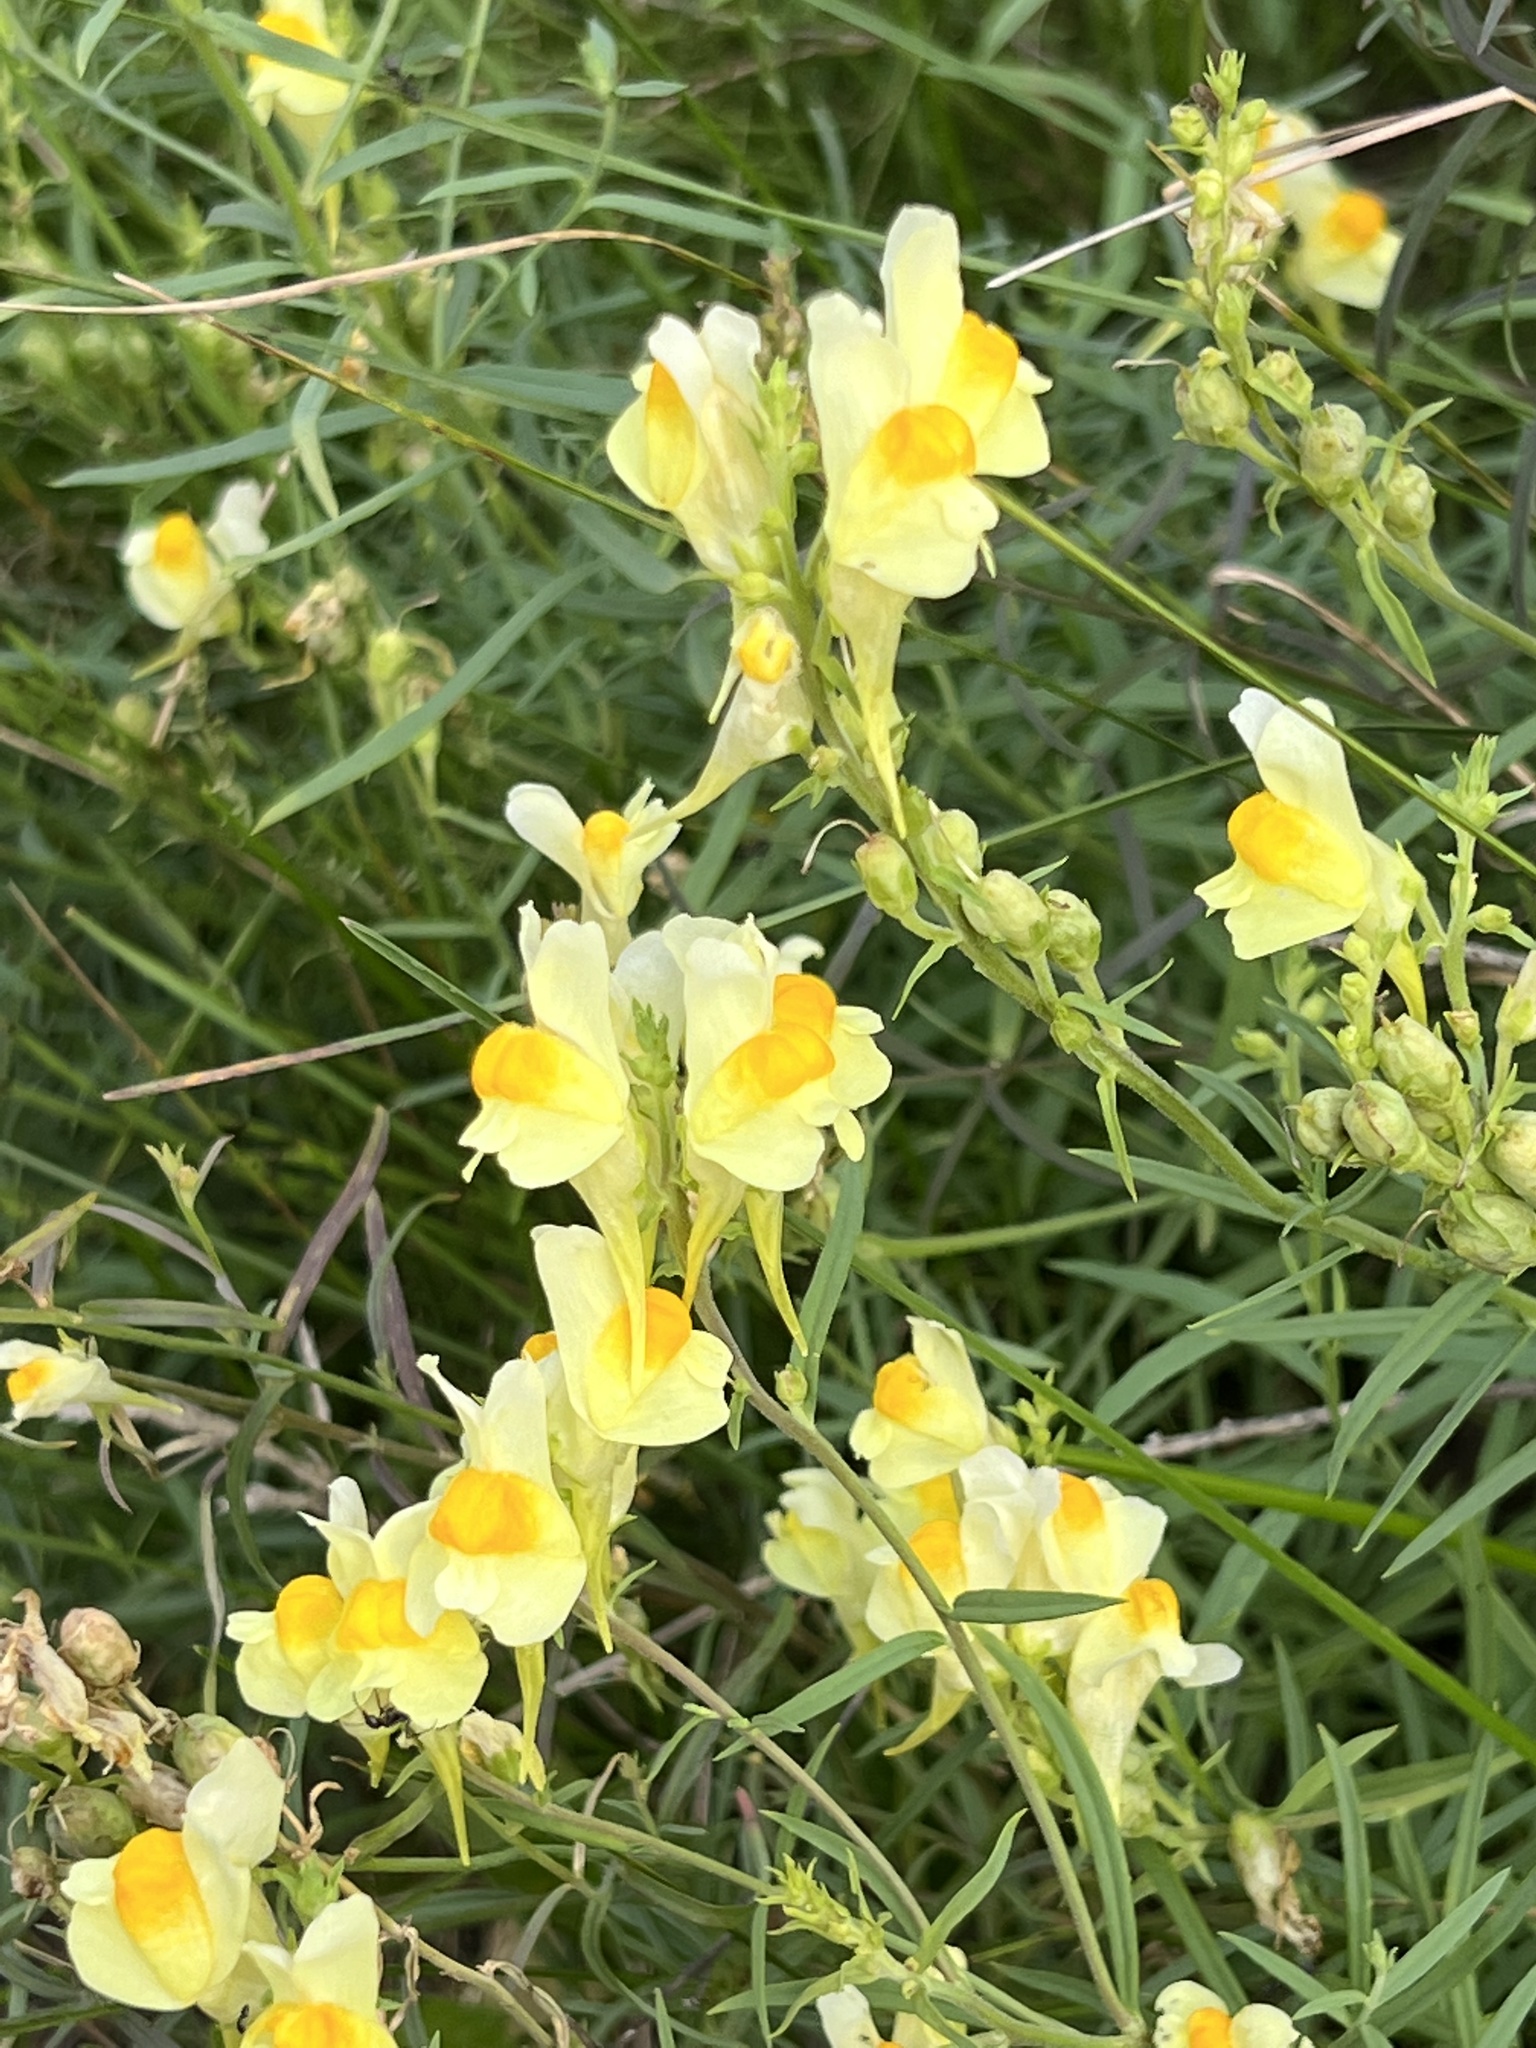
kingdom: Plantae
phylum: Tracheophyta
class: Magnoliopsida
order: Lamiales
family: Plantaginaceae
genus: Linaria
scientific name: Linaria vulgaris
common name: Butter and eggs
